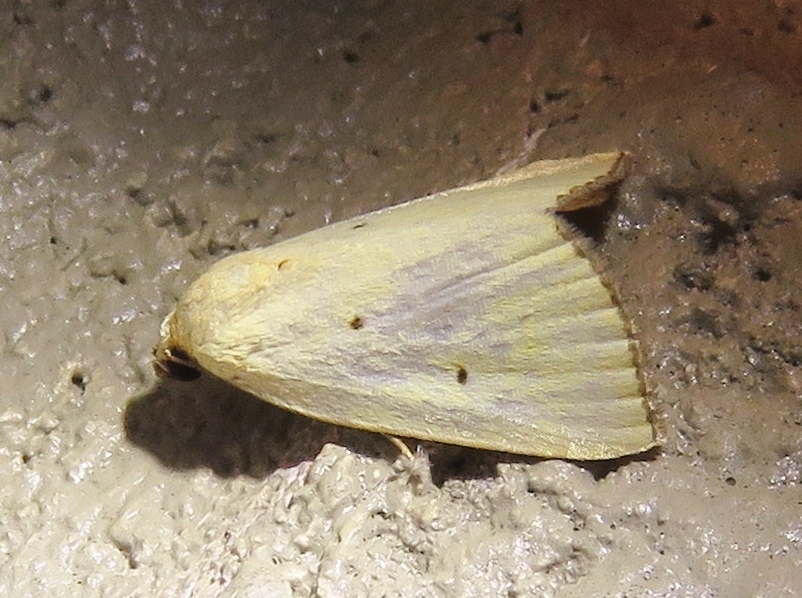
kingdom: Animalia
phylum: Arthropoda
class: Insecta
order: Lepidoptera
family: Noctuidae
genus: Marimatha
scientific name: Marimatha nigrofimbria
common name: Black-bordered lemon moth
